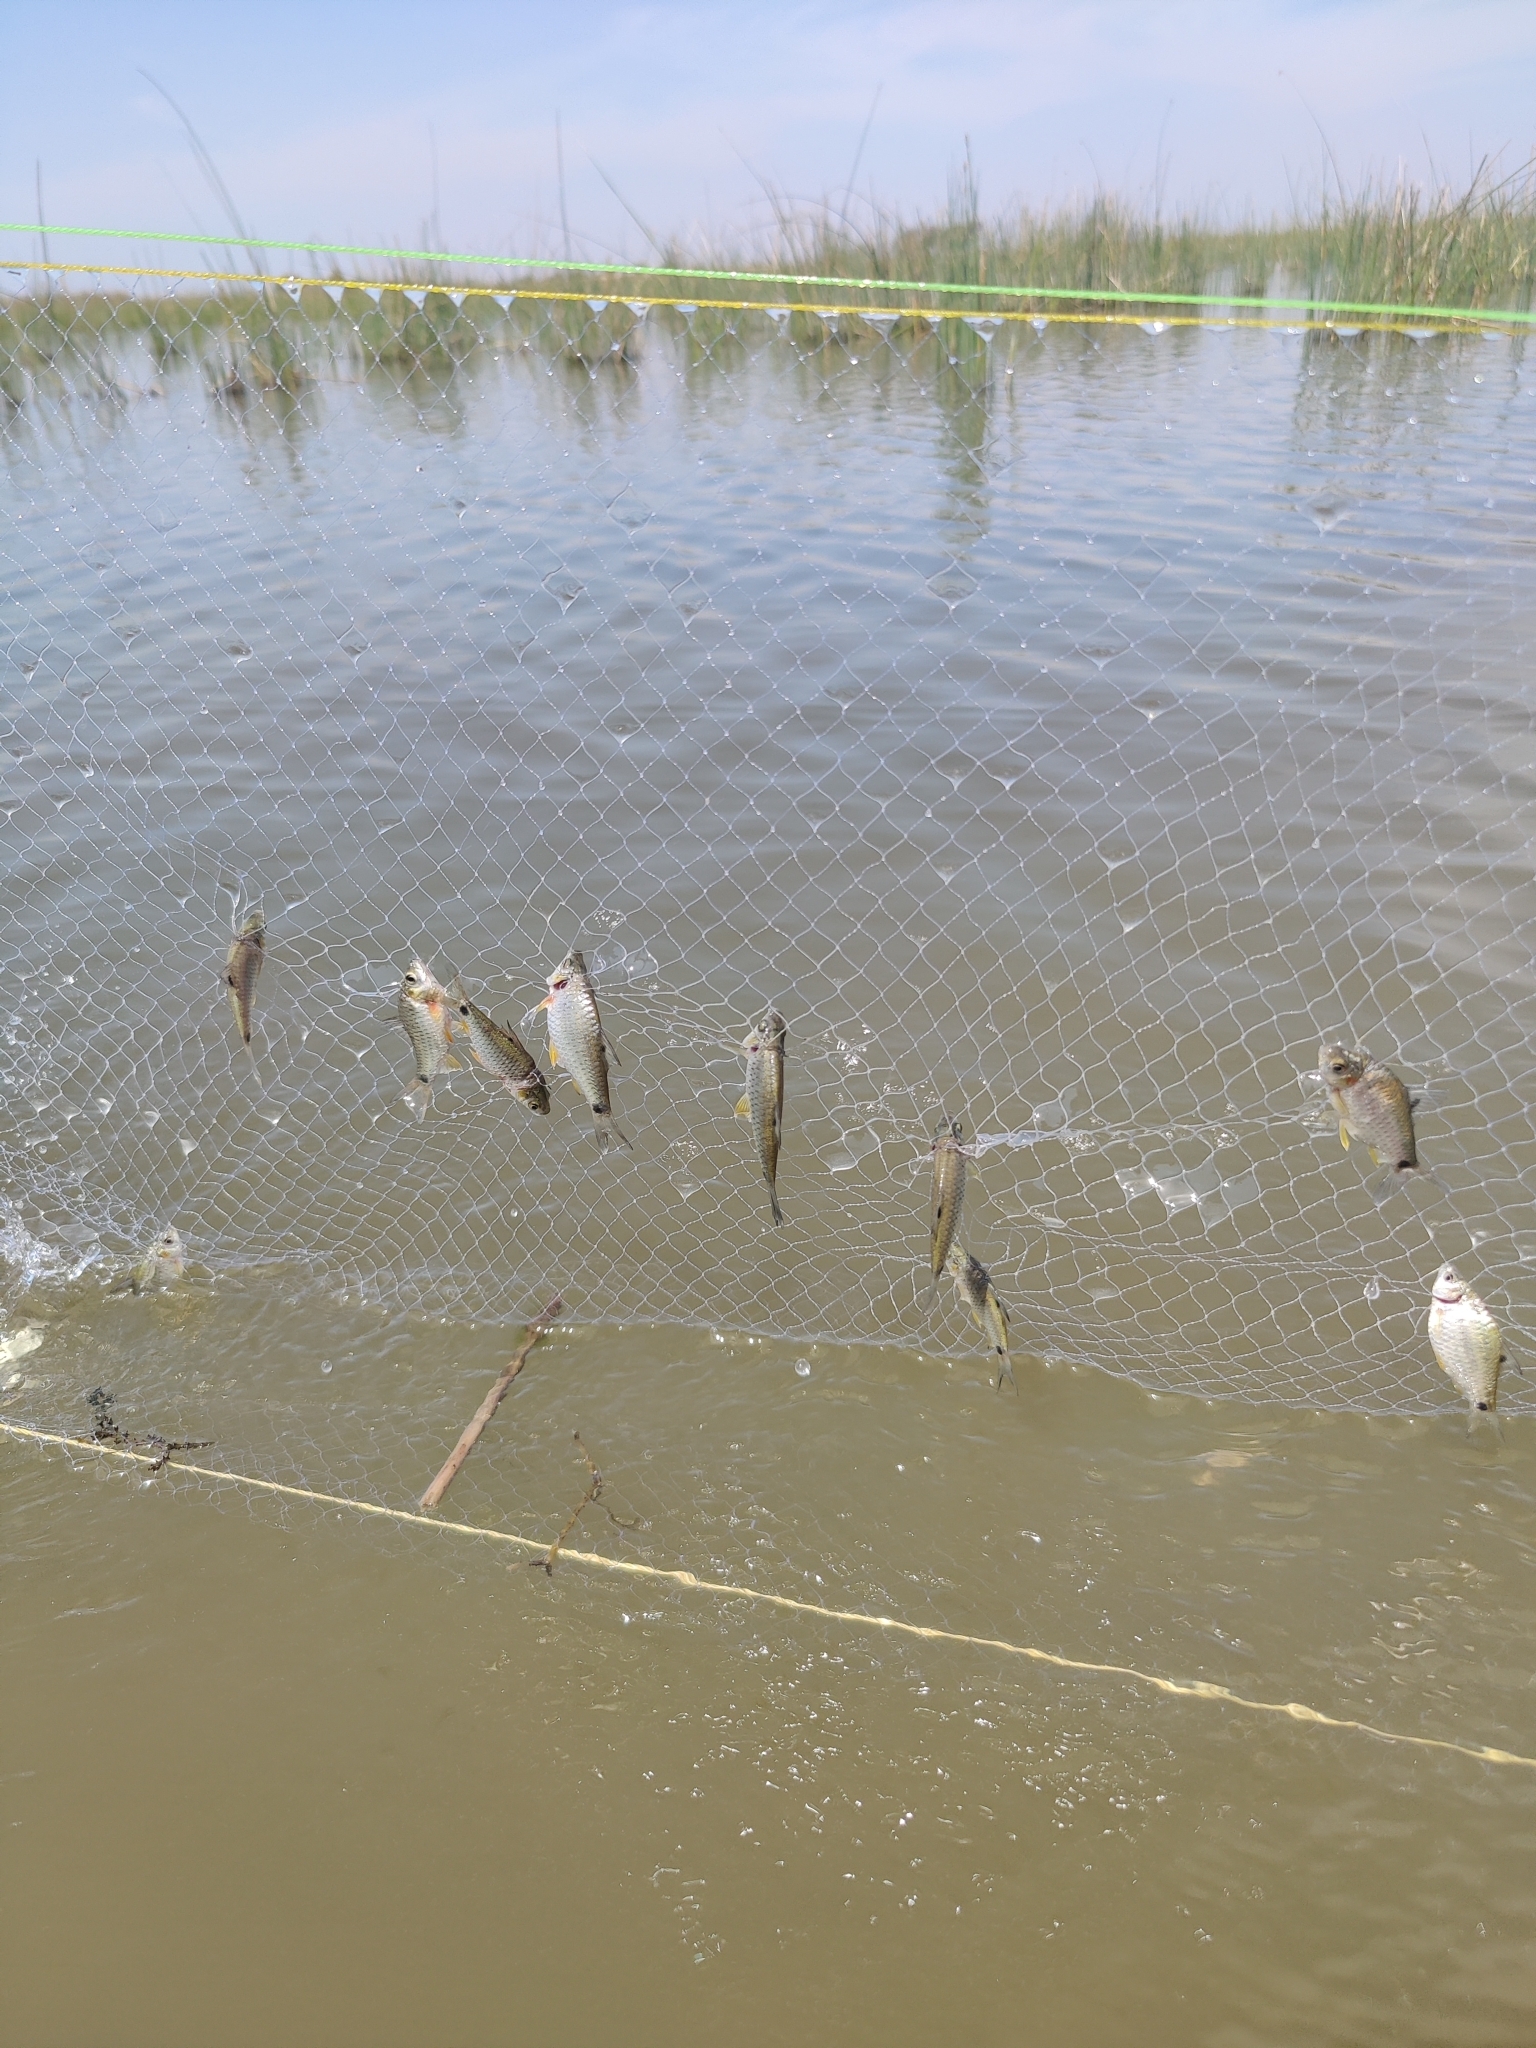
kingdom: Animalia
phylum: Chordata
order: Cypriniformes
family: Cyprinidae
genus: Puntius
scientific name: Puntius sophore
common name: Pool barb
